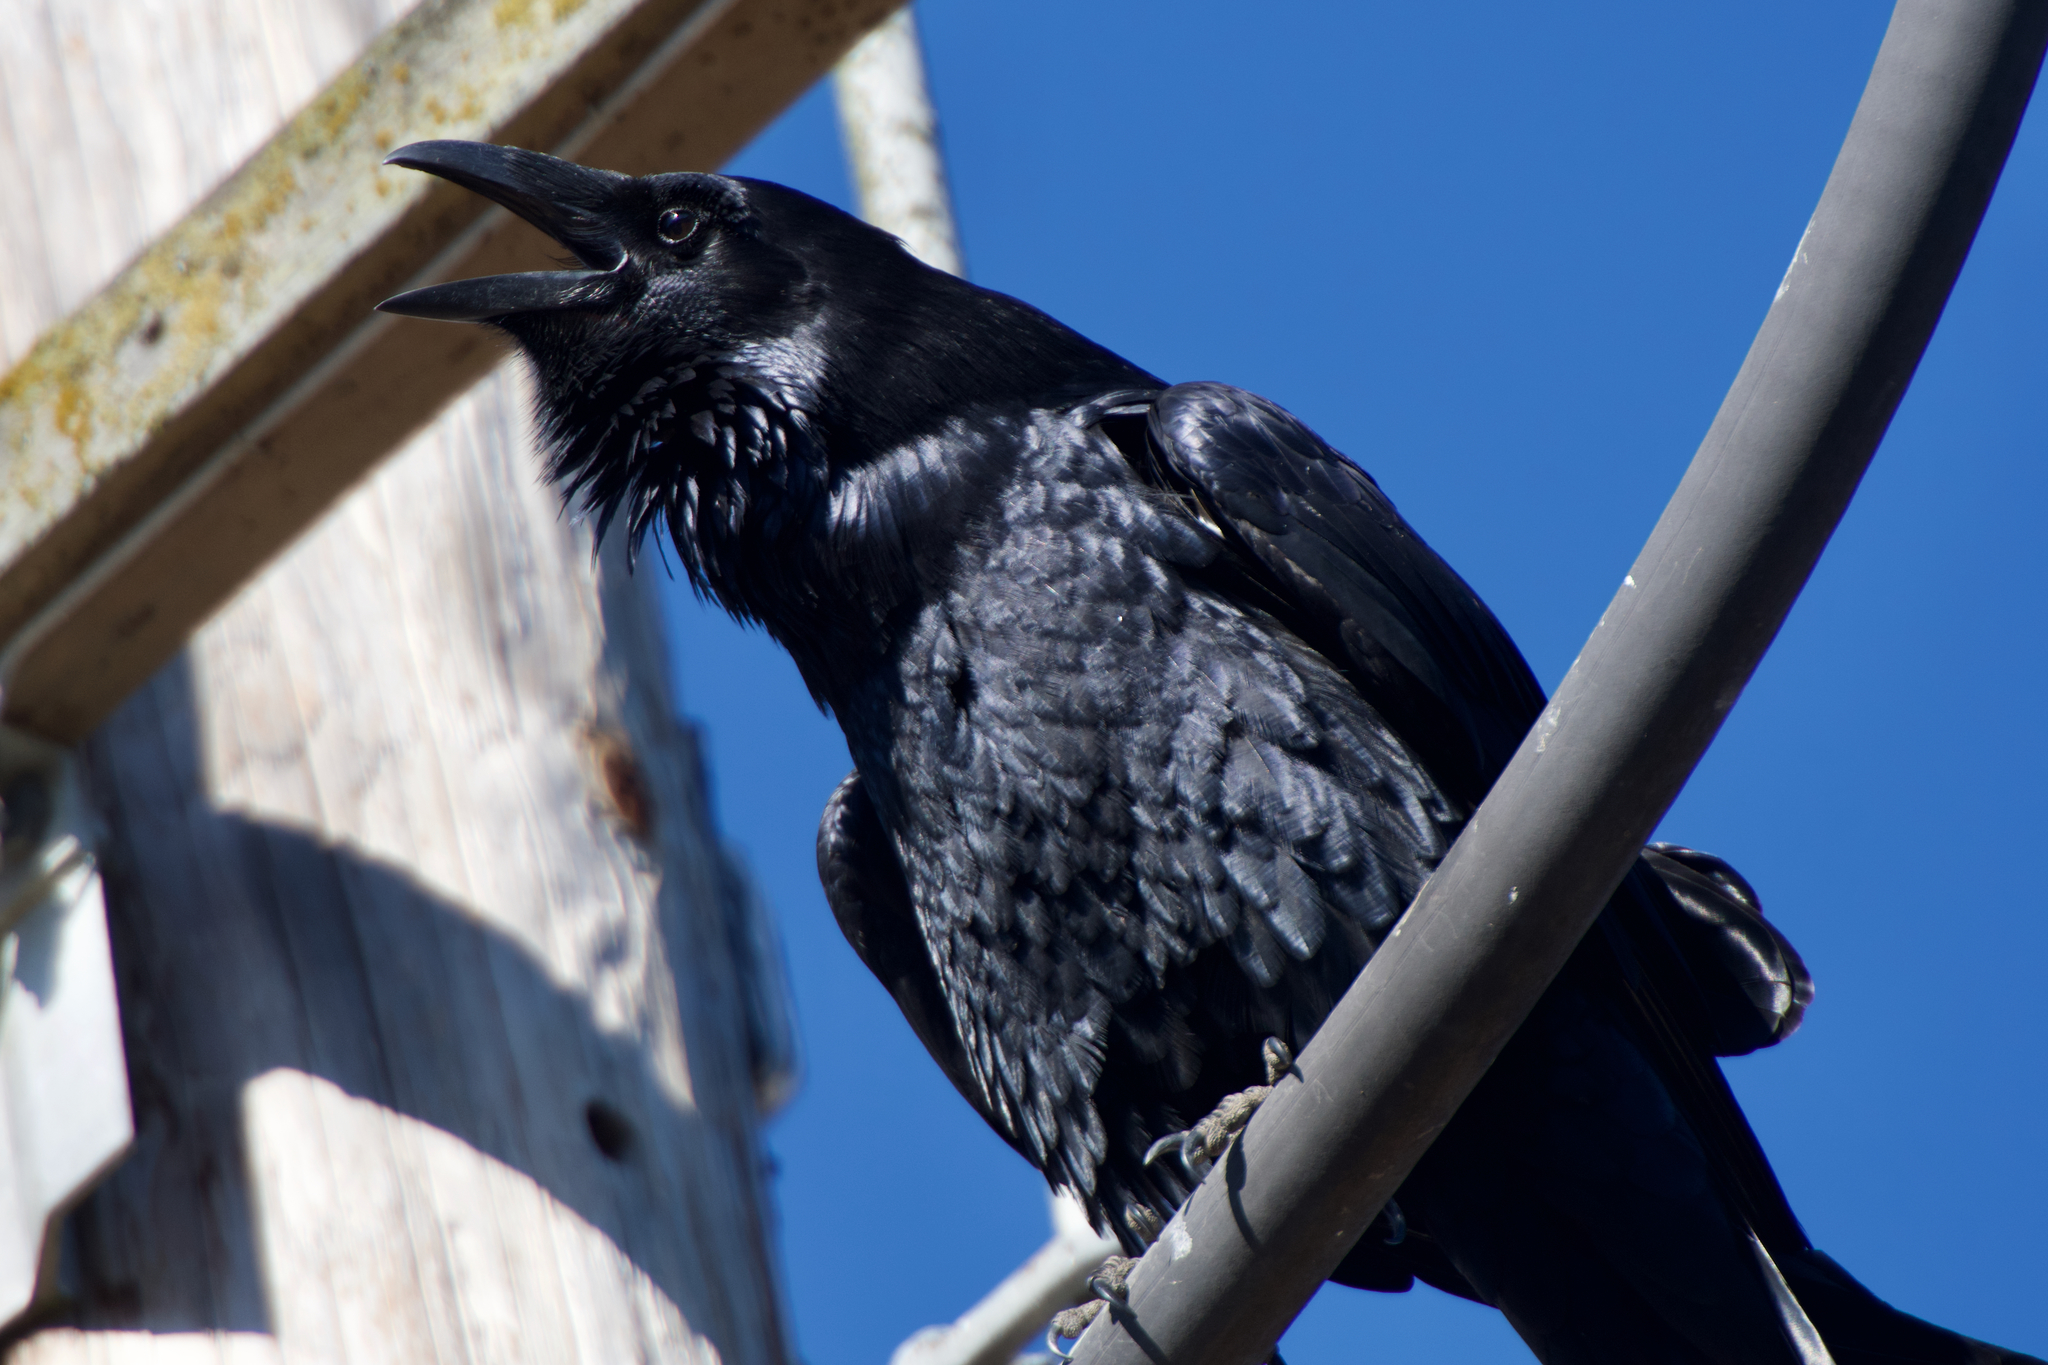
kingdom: Animalia
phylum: Chordata
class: Aves
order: Passeriformes
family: Corvidae
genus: Corvus
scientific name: Corvus corax
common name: Common raven
